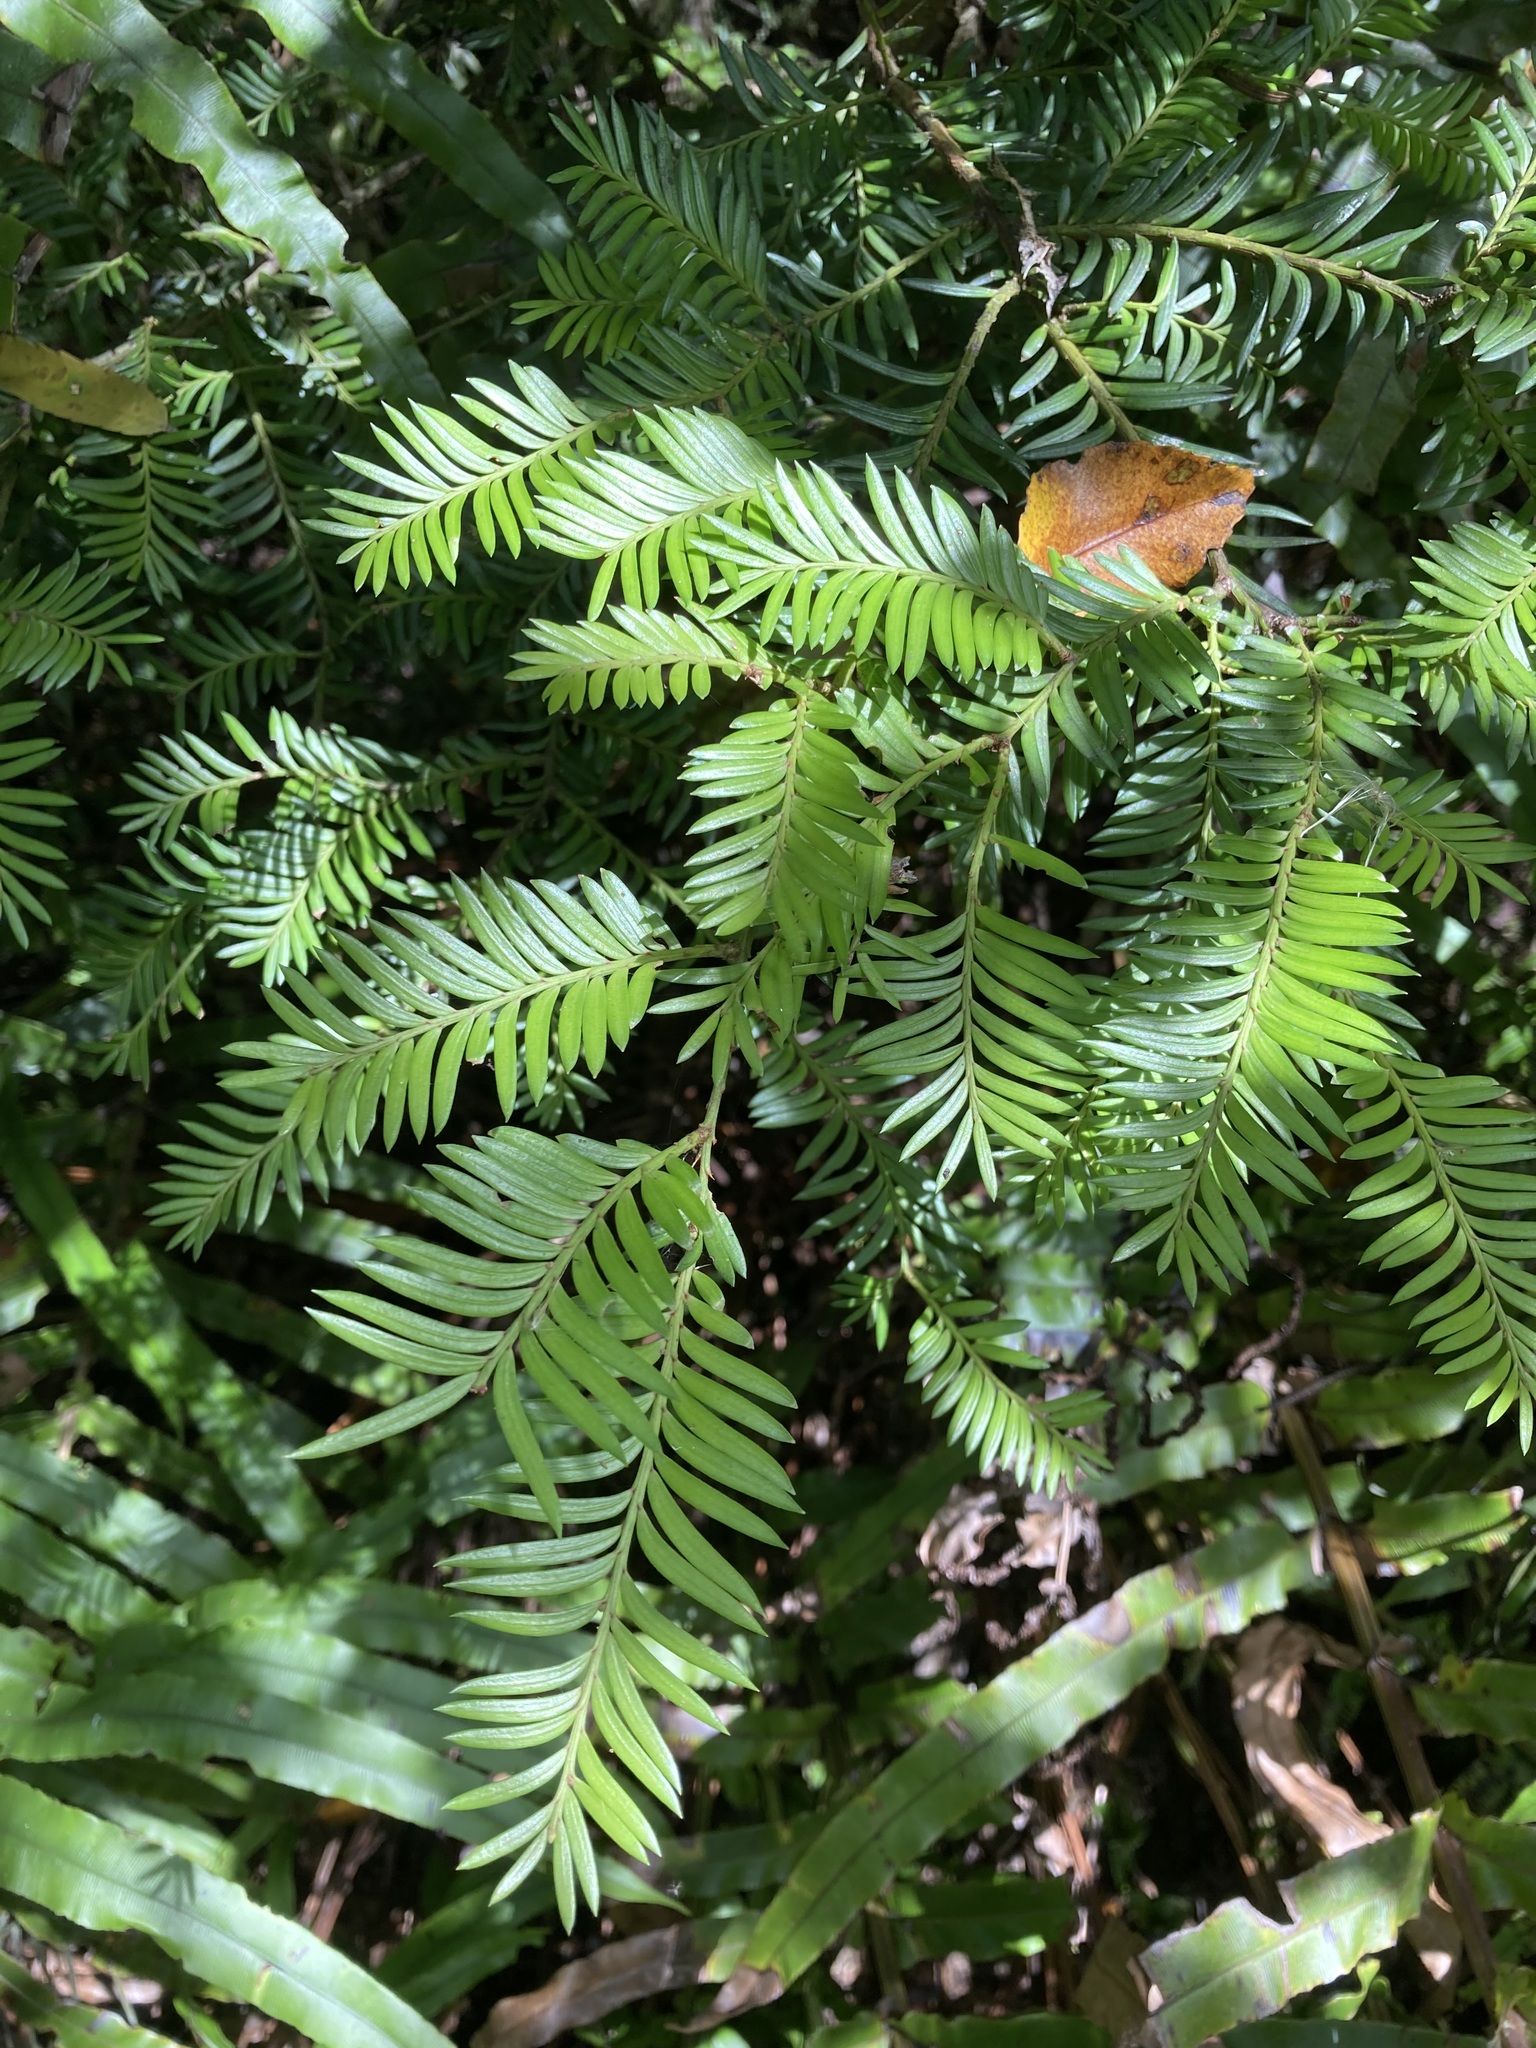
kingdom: Plantae
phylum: Tracheophyta
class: Pinopsida
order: Pinales
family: Podocarpaceae
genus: Prumnopitys
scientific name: Prumnopitys ferruginea
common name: Brown pine
